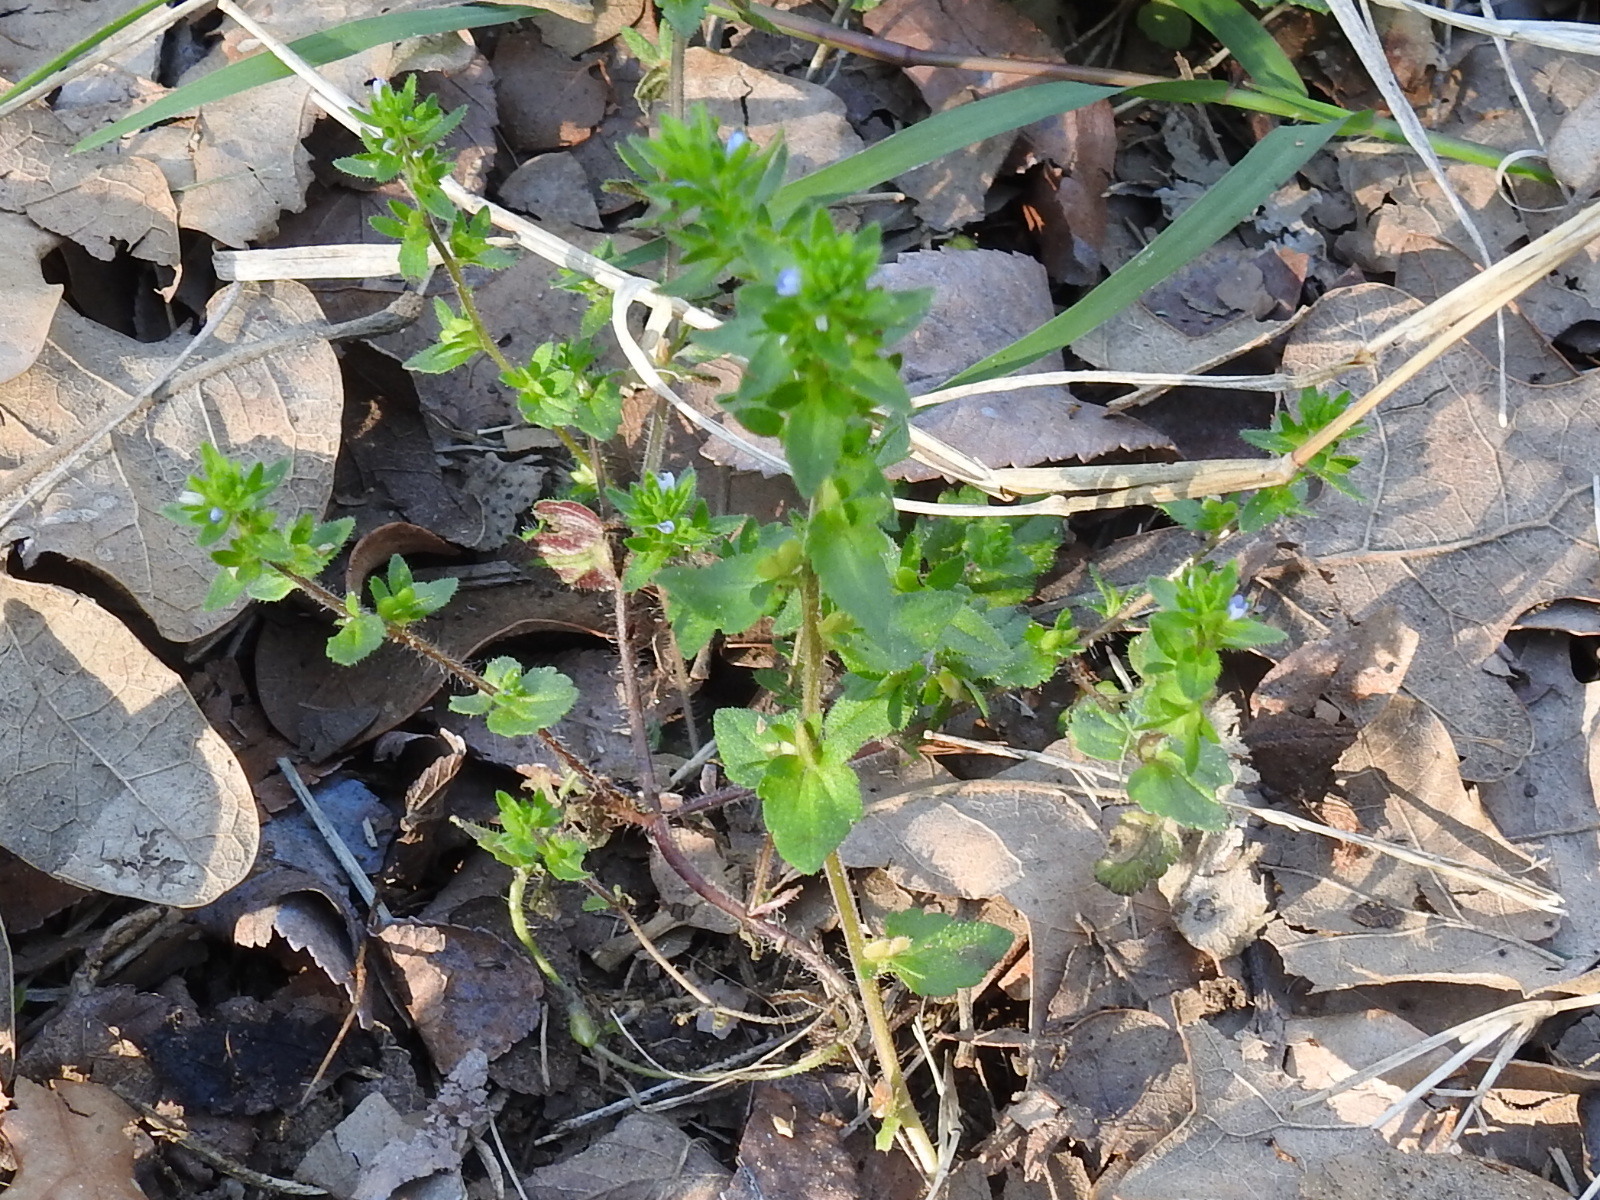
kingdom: Plantae
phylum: Tracheophyta
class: Magnoliopsida
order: Lamiales
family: Plantaginaceae
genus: Veronica
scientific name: Veronica arvensis
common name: Corn speedwell
